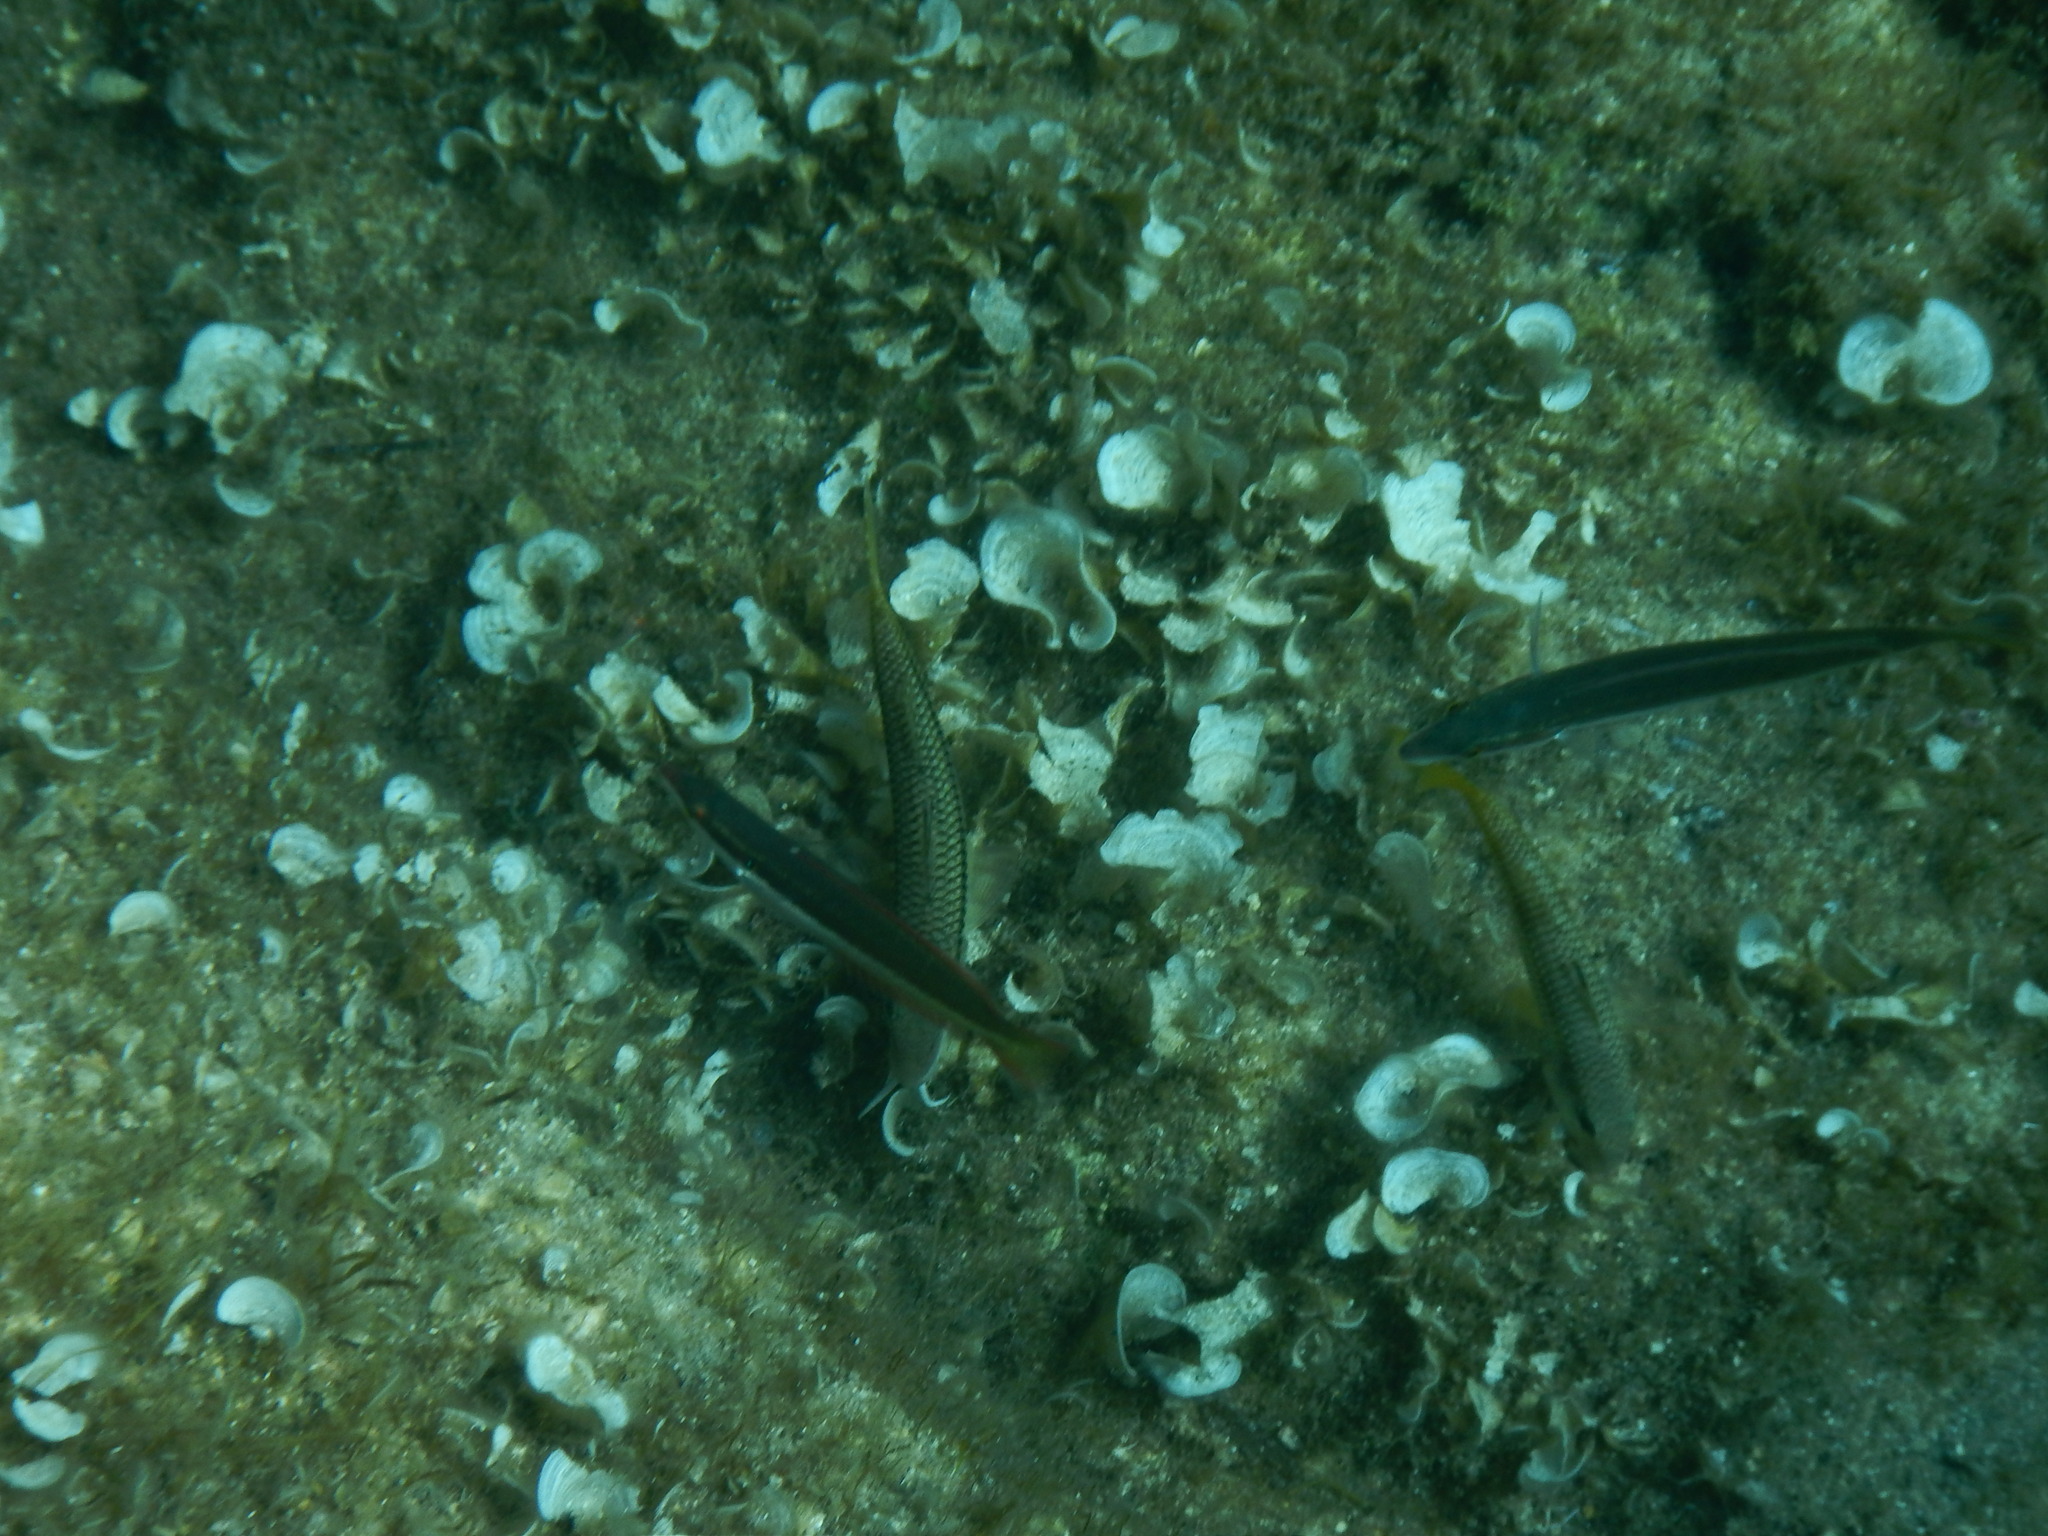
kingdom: Animalia
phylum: Chordata
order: Perciformes
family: Labridae
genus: Coris
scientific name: Coris julis
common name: Rainbow wrasse
